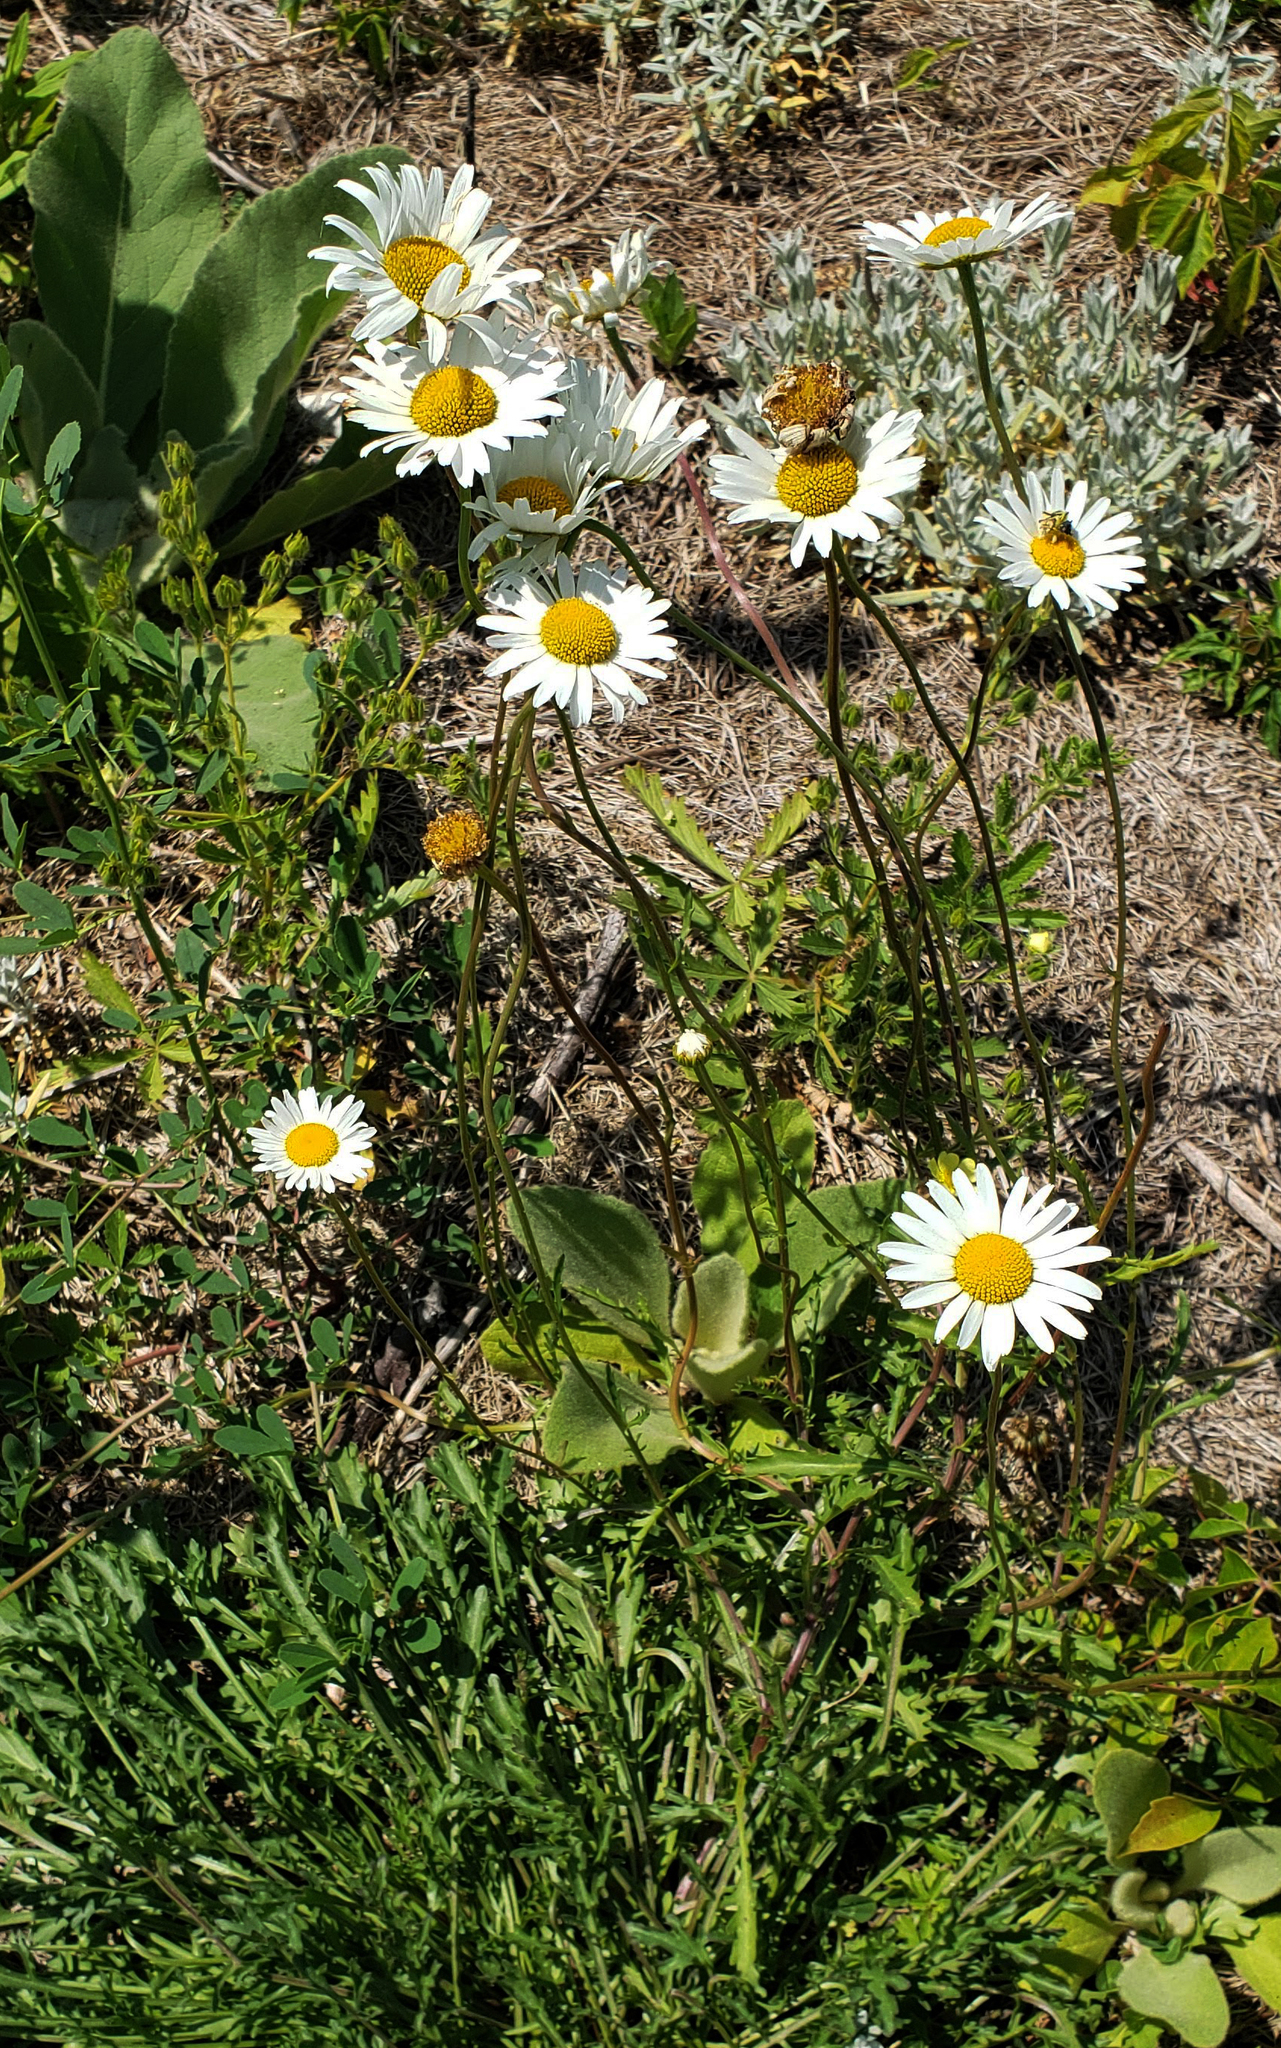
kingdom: Plantae
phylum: Tracheophyta
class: Magnoliopsida
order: Asterales
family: Asteraceae
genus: Leucanthemum
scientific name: Leucanthemum vulgare
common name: Oxeye daisy
